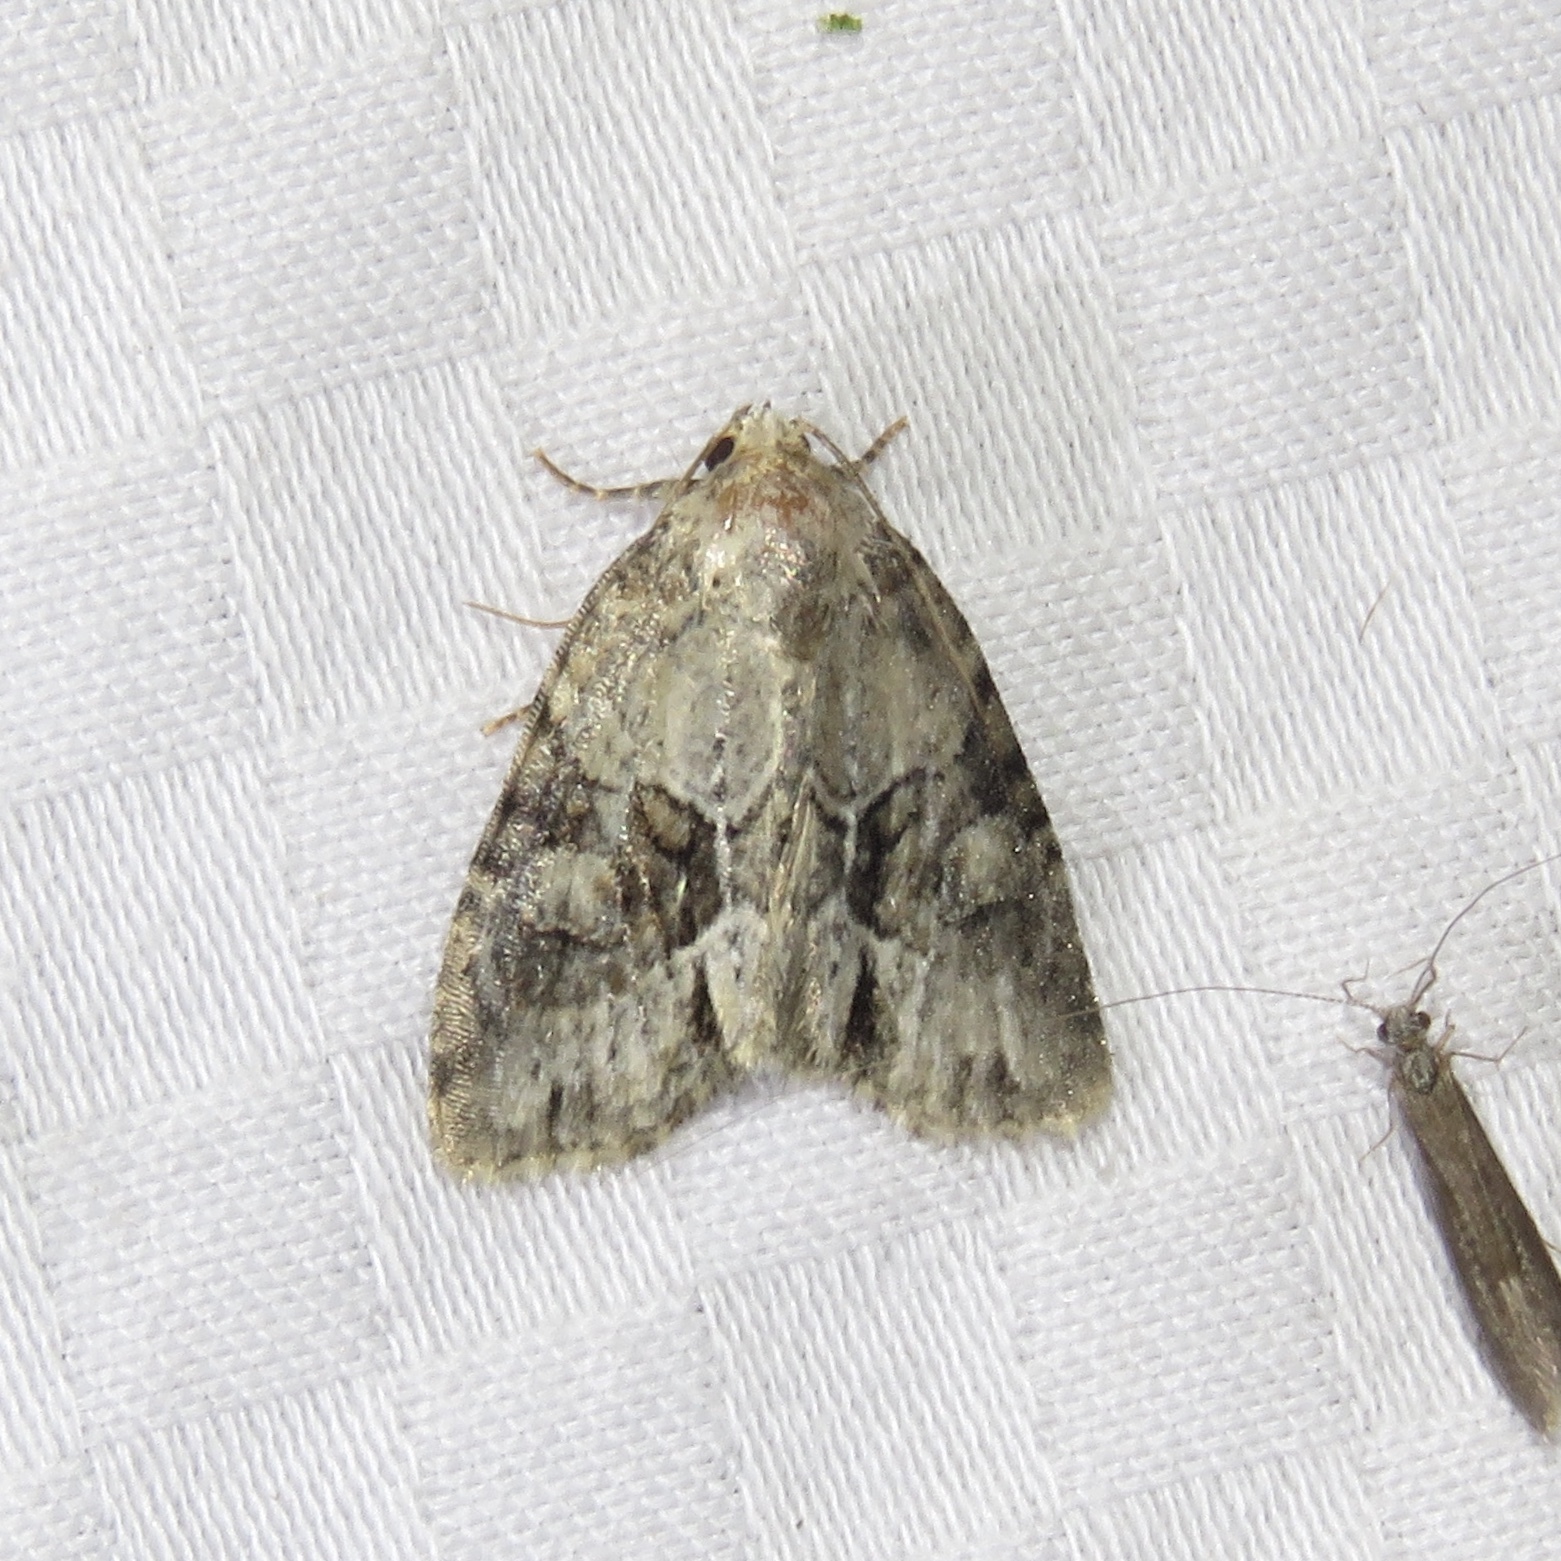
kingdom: Animalia
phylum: Arthropoda
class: Insecta
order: Lepidoptera
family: Noctuidae
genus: Neoligia
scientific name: Neoligia exhausta
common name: Exhausted brocade
